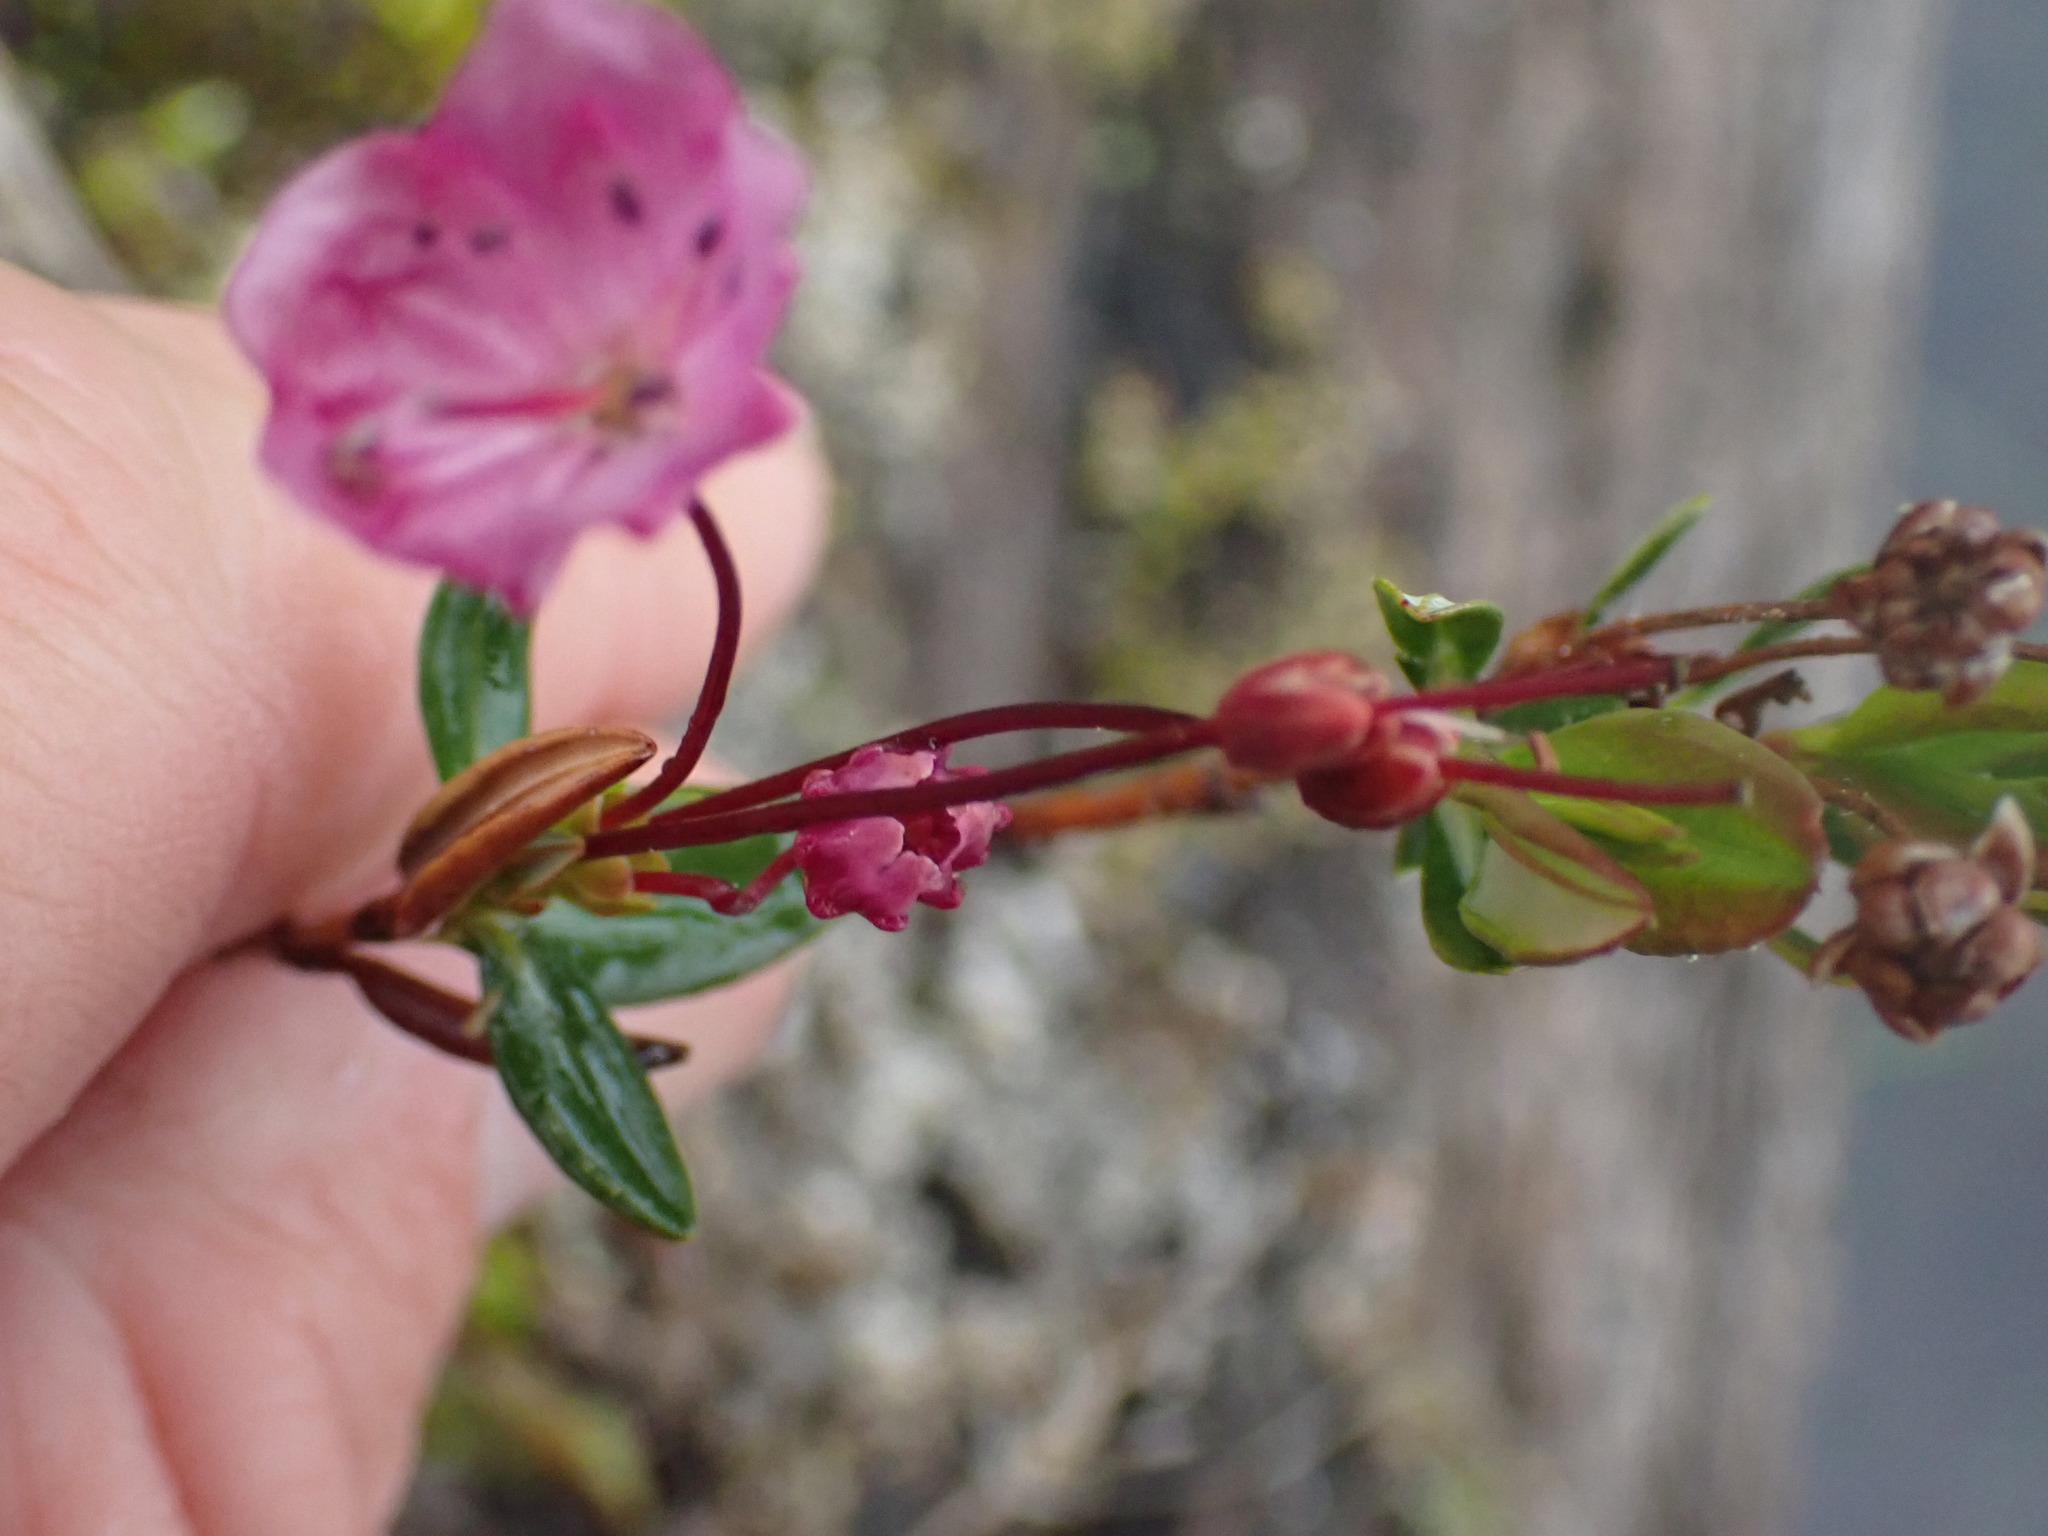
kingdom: Plantae
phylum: Tracheophyta
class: Magnoliopsida
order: Ericales
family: Ericaceae
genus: Kalmia
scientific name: Kalmia microphylla
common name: Alpine bog laurel
